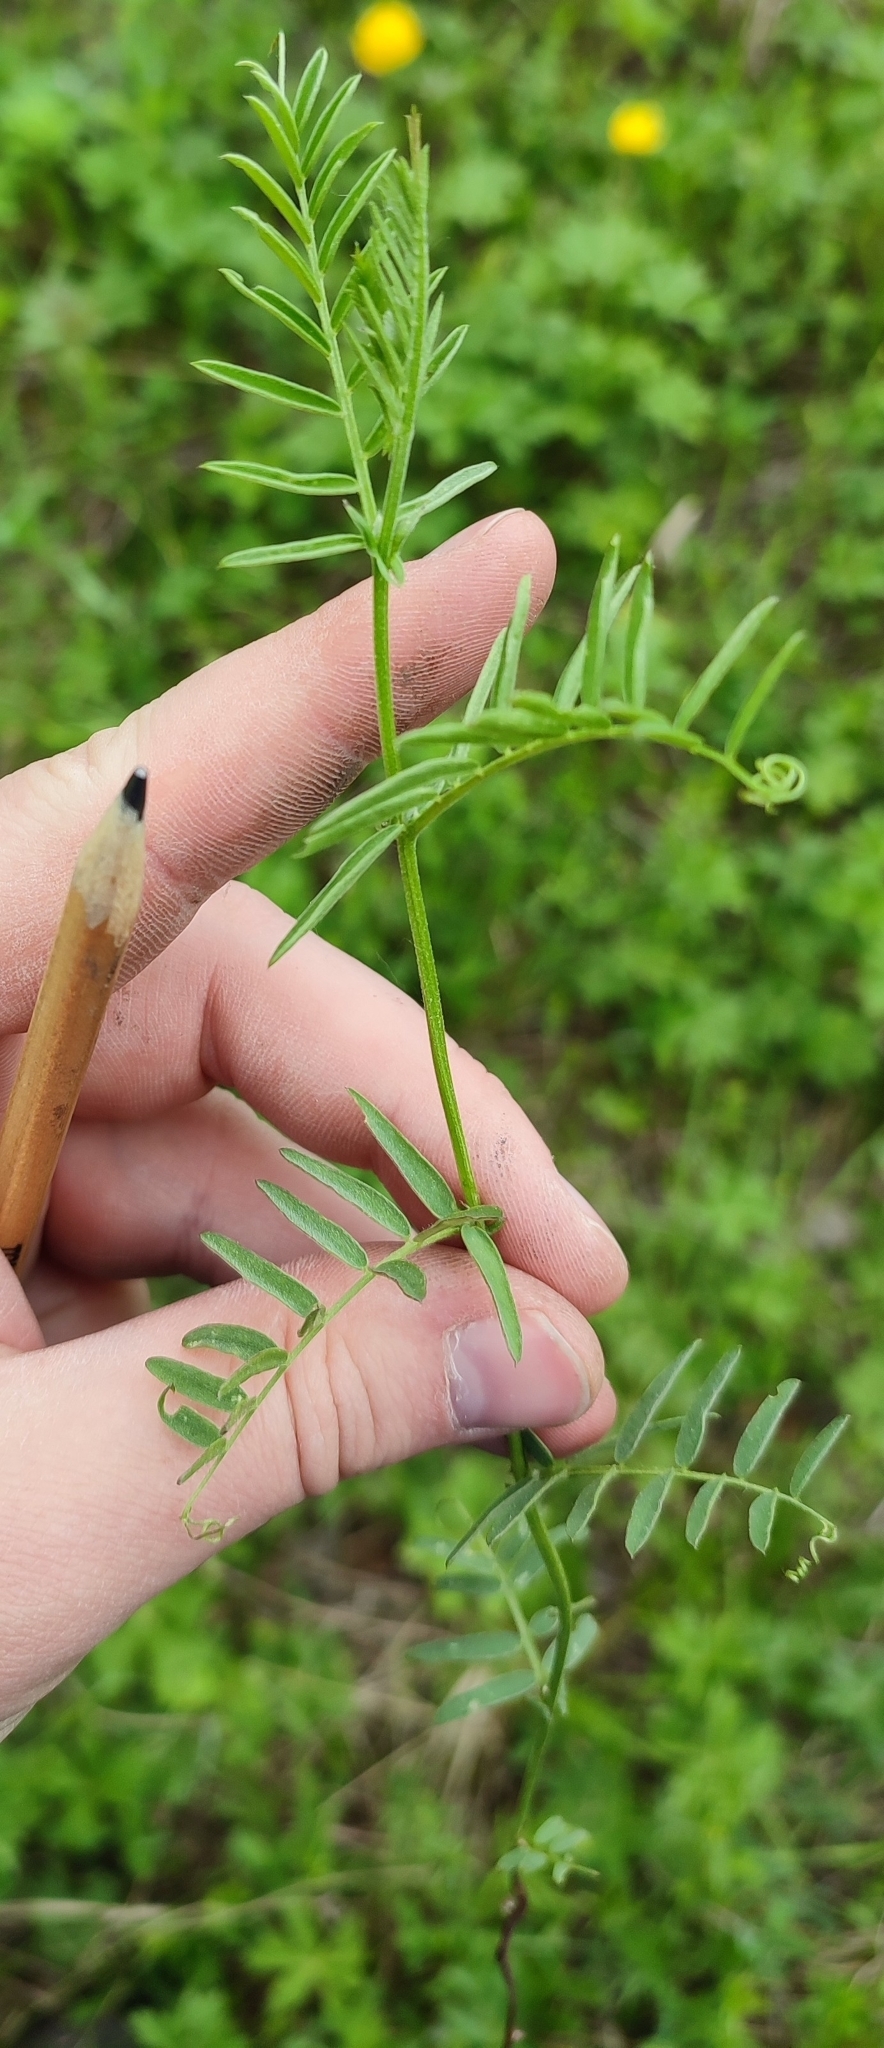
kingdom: Plantae
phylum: Tracheophyta
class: Magnoliopsida
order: Fabales
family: Fabaceae
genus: Vicia
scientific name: Vicia cracca
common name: Bird vetch
